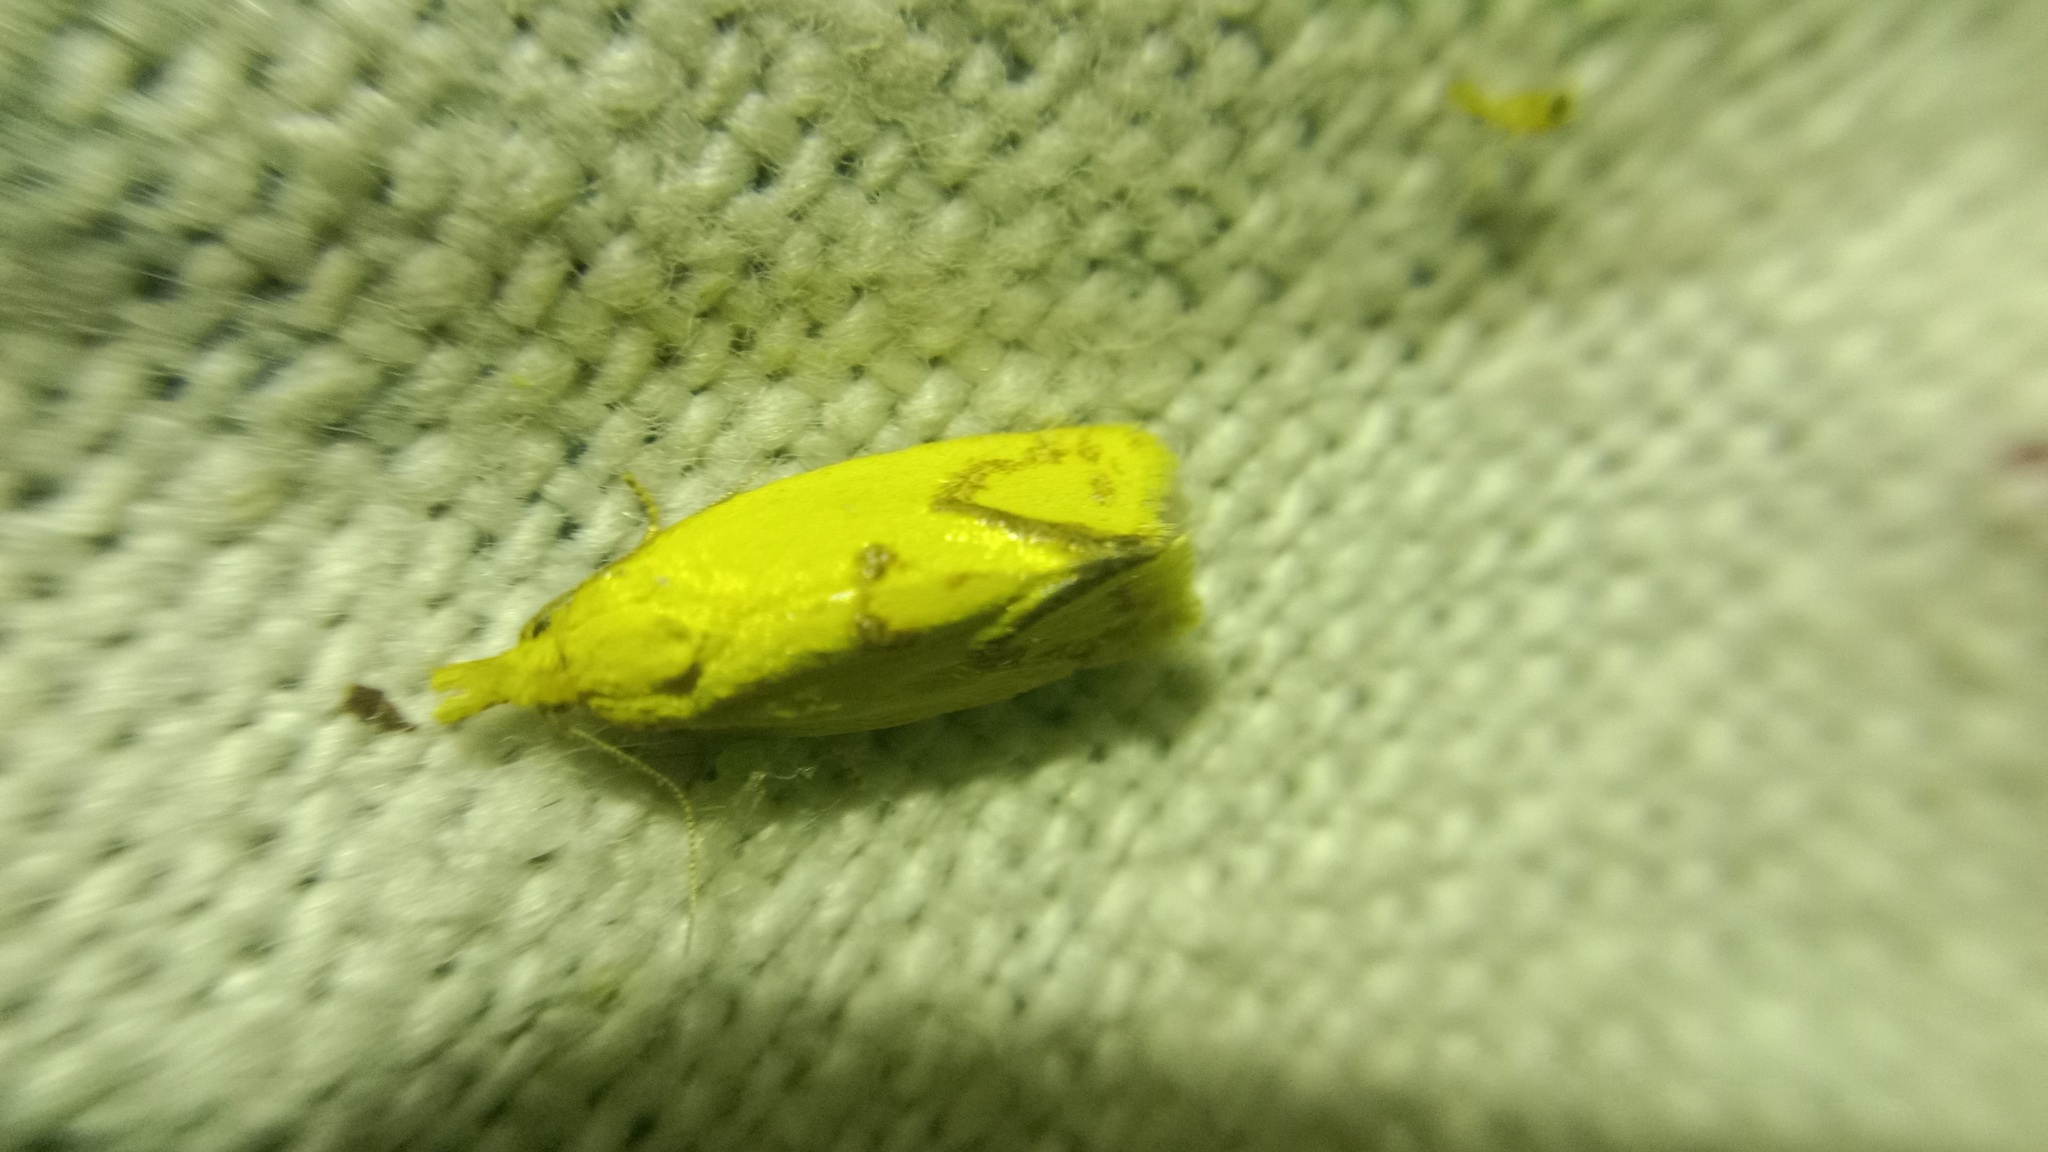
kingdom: Animalia
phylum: Arthropoda
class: Insecta
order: Lepidoptera
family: Tortricidae
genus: Agapeta
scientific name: Agapeta hamana
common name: Common yellow conch
